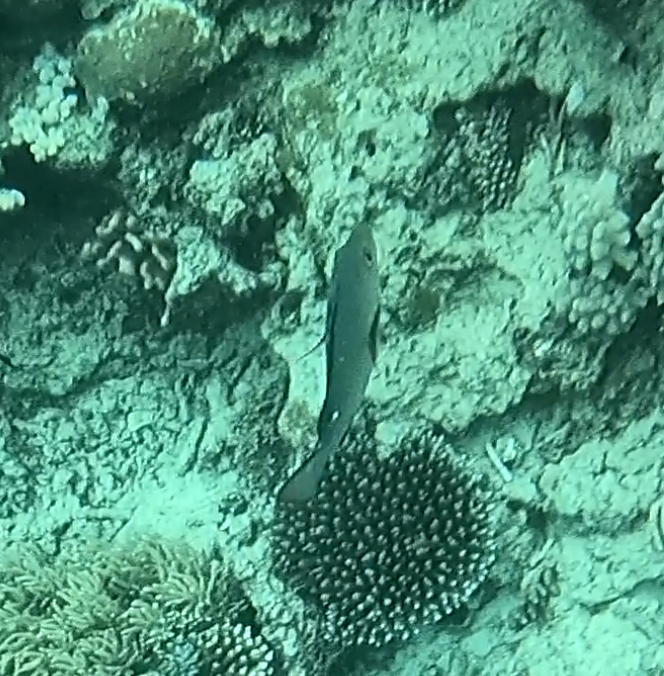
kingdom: Animalia
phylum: Chordata
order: Perciformes
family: Lutjanidae
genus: Lutjanus
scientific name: Lutjanus bohar
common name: Red bass
